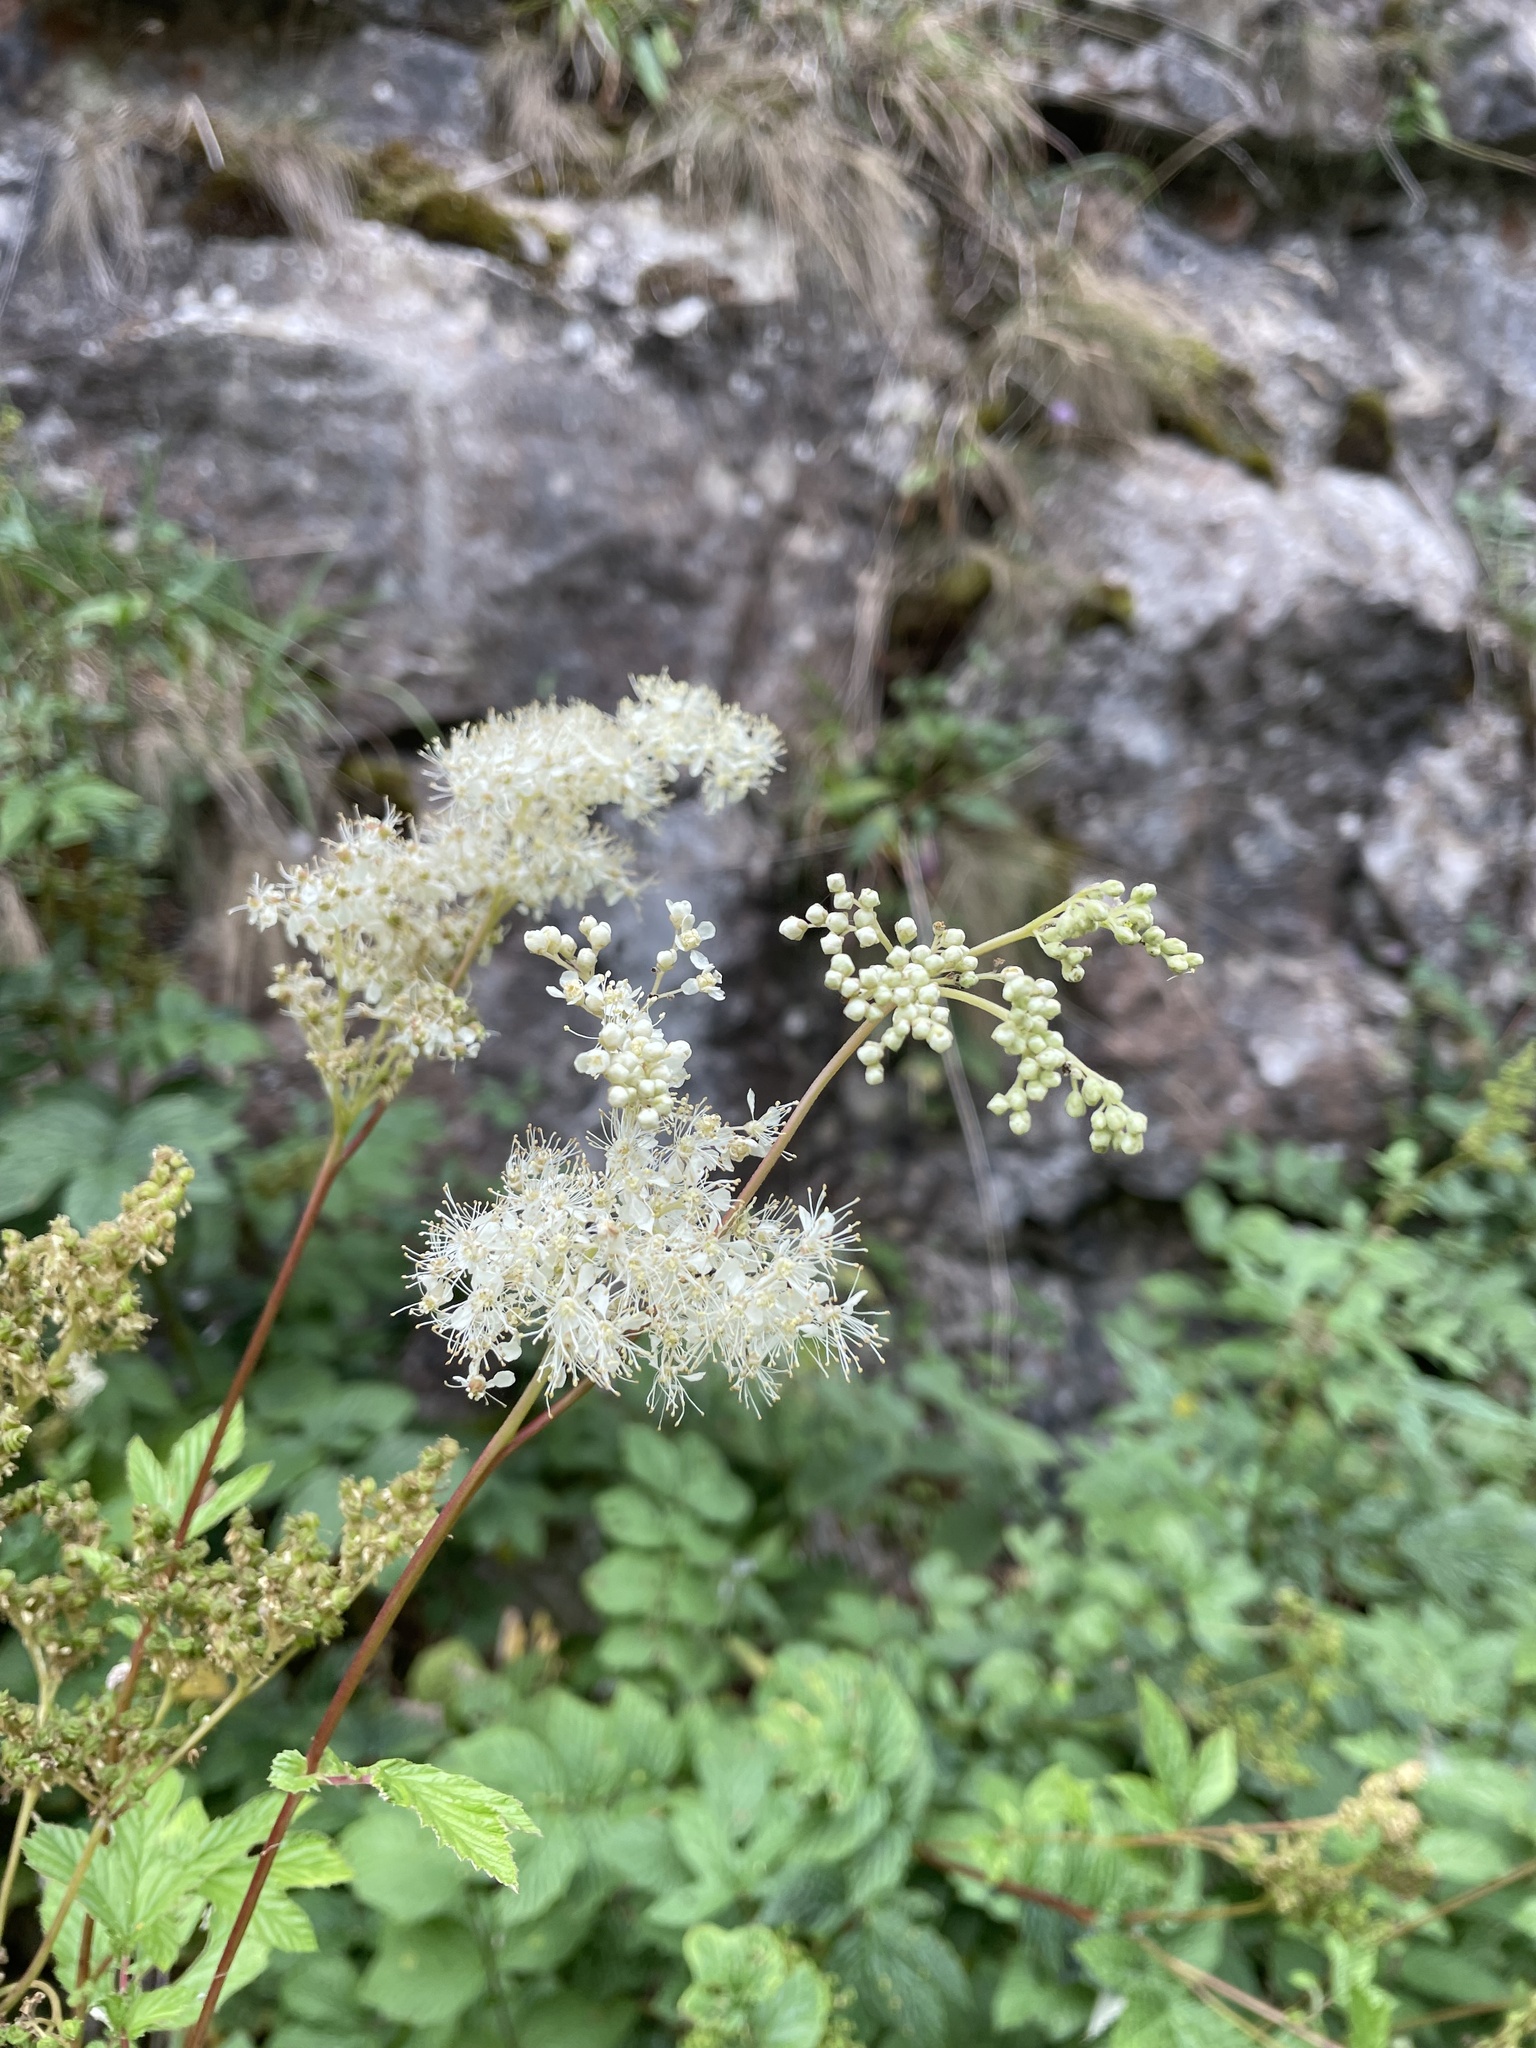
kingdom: Plantae
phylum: Tracheophyta
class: Magnoliopsida
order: Rosales
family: Rosaceae
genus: Filipendula
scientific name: Filipendula ulmaria
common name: Meadowsweet
